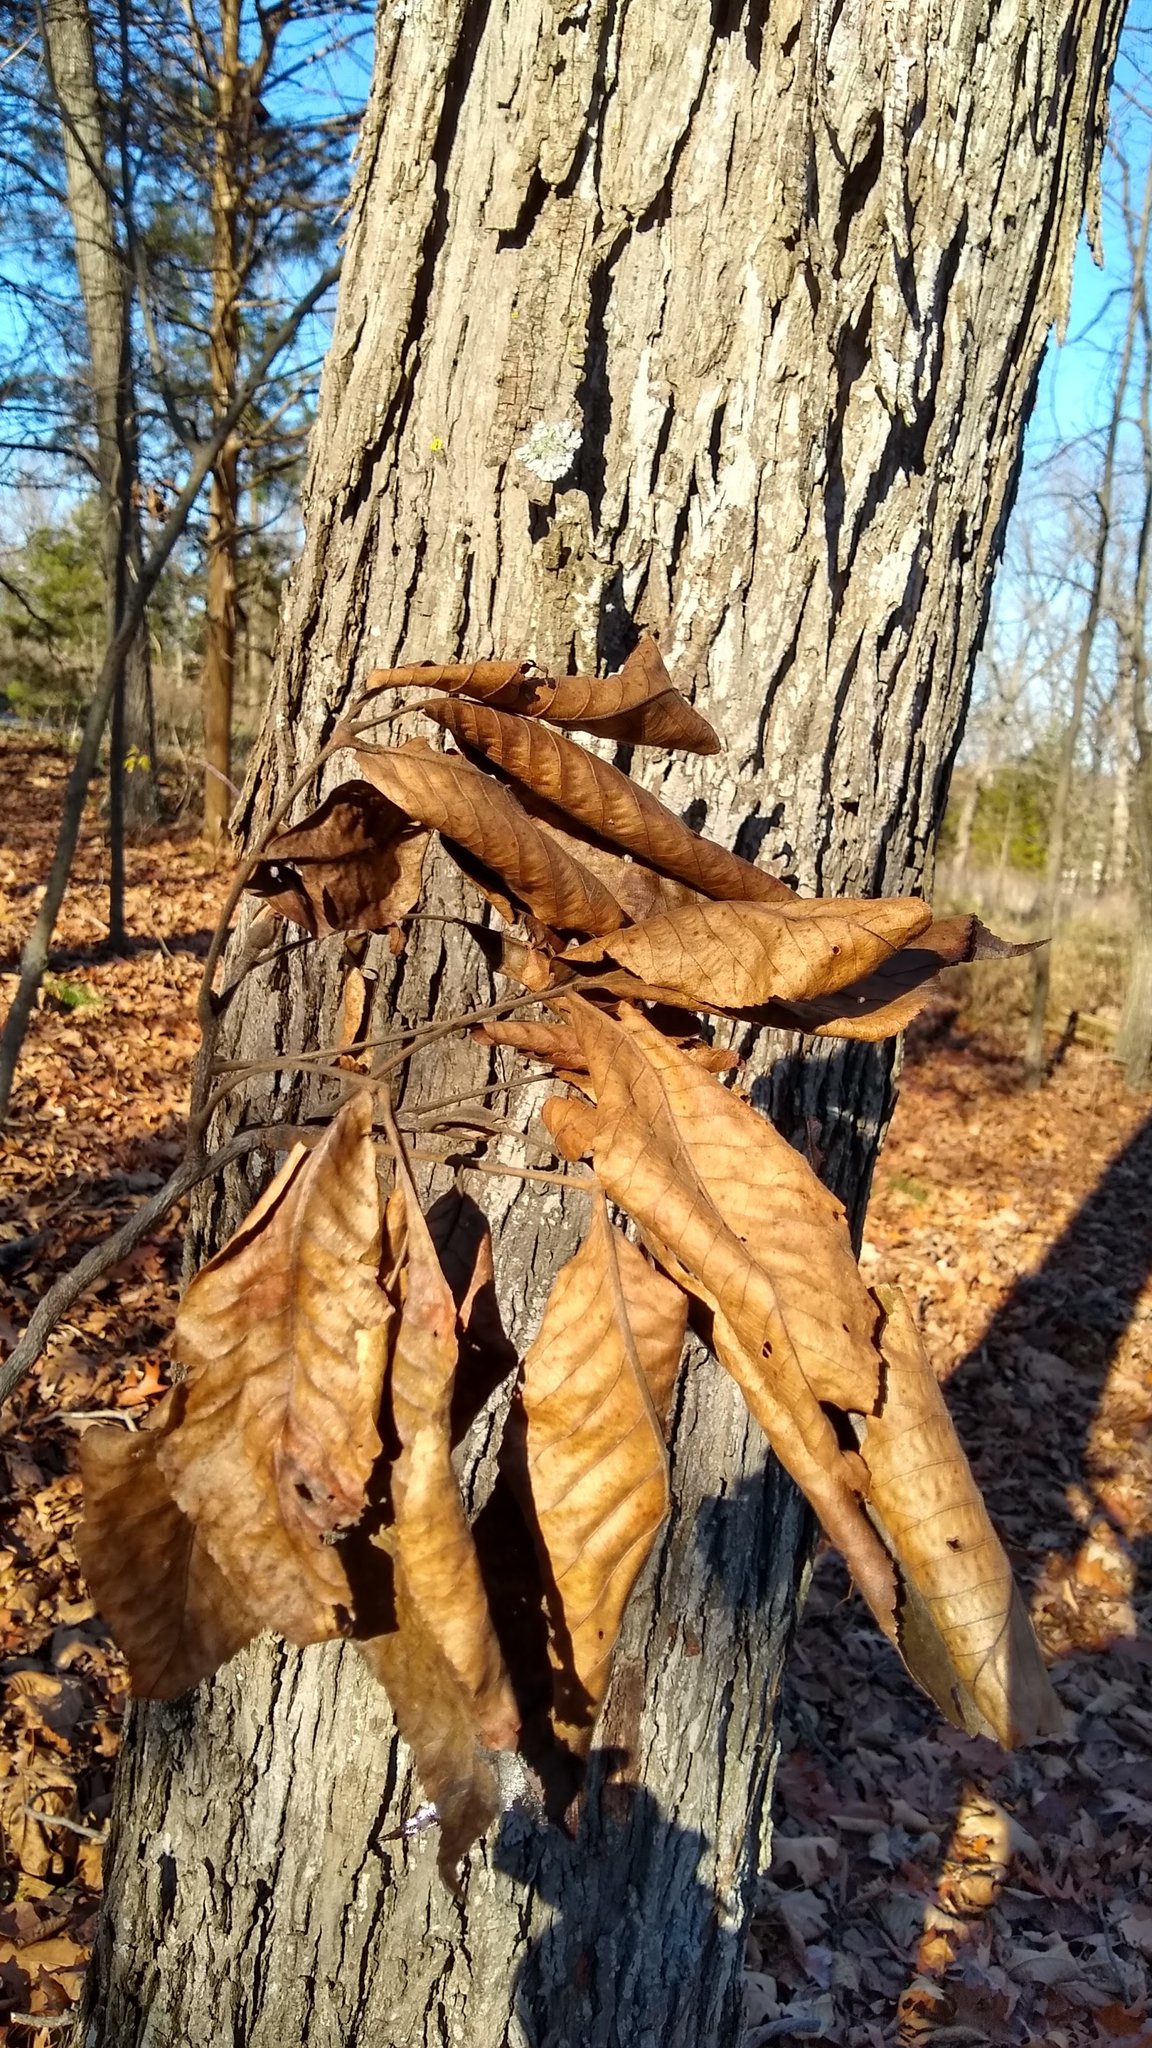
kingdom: Plantae
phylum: Tracheophyta
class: Magnoliopsida
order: Fagales
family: Juglandaceae
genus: Carya
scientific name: Carya ovata
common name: Shagbark hickory
